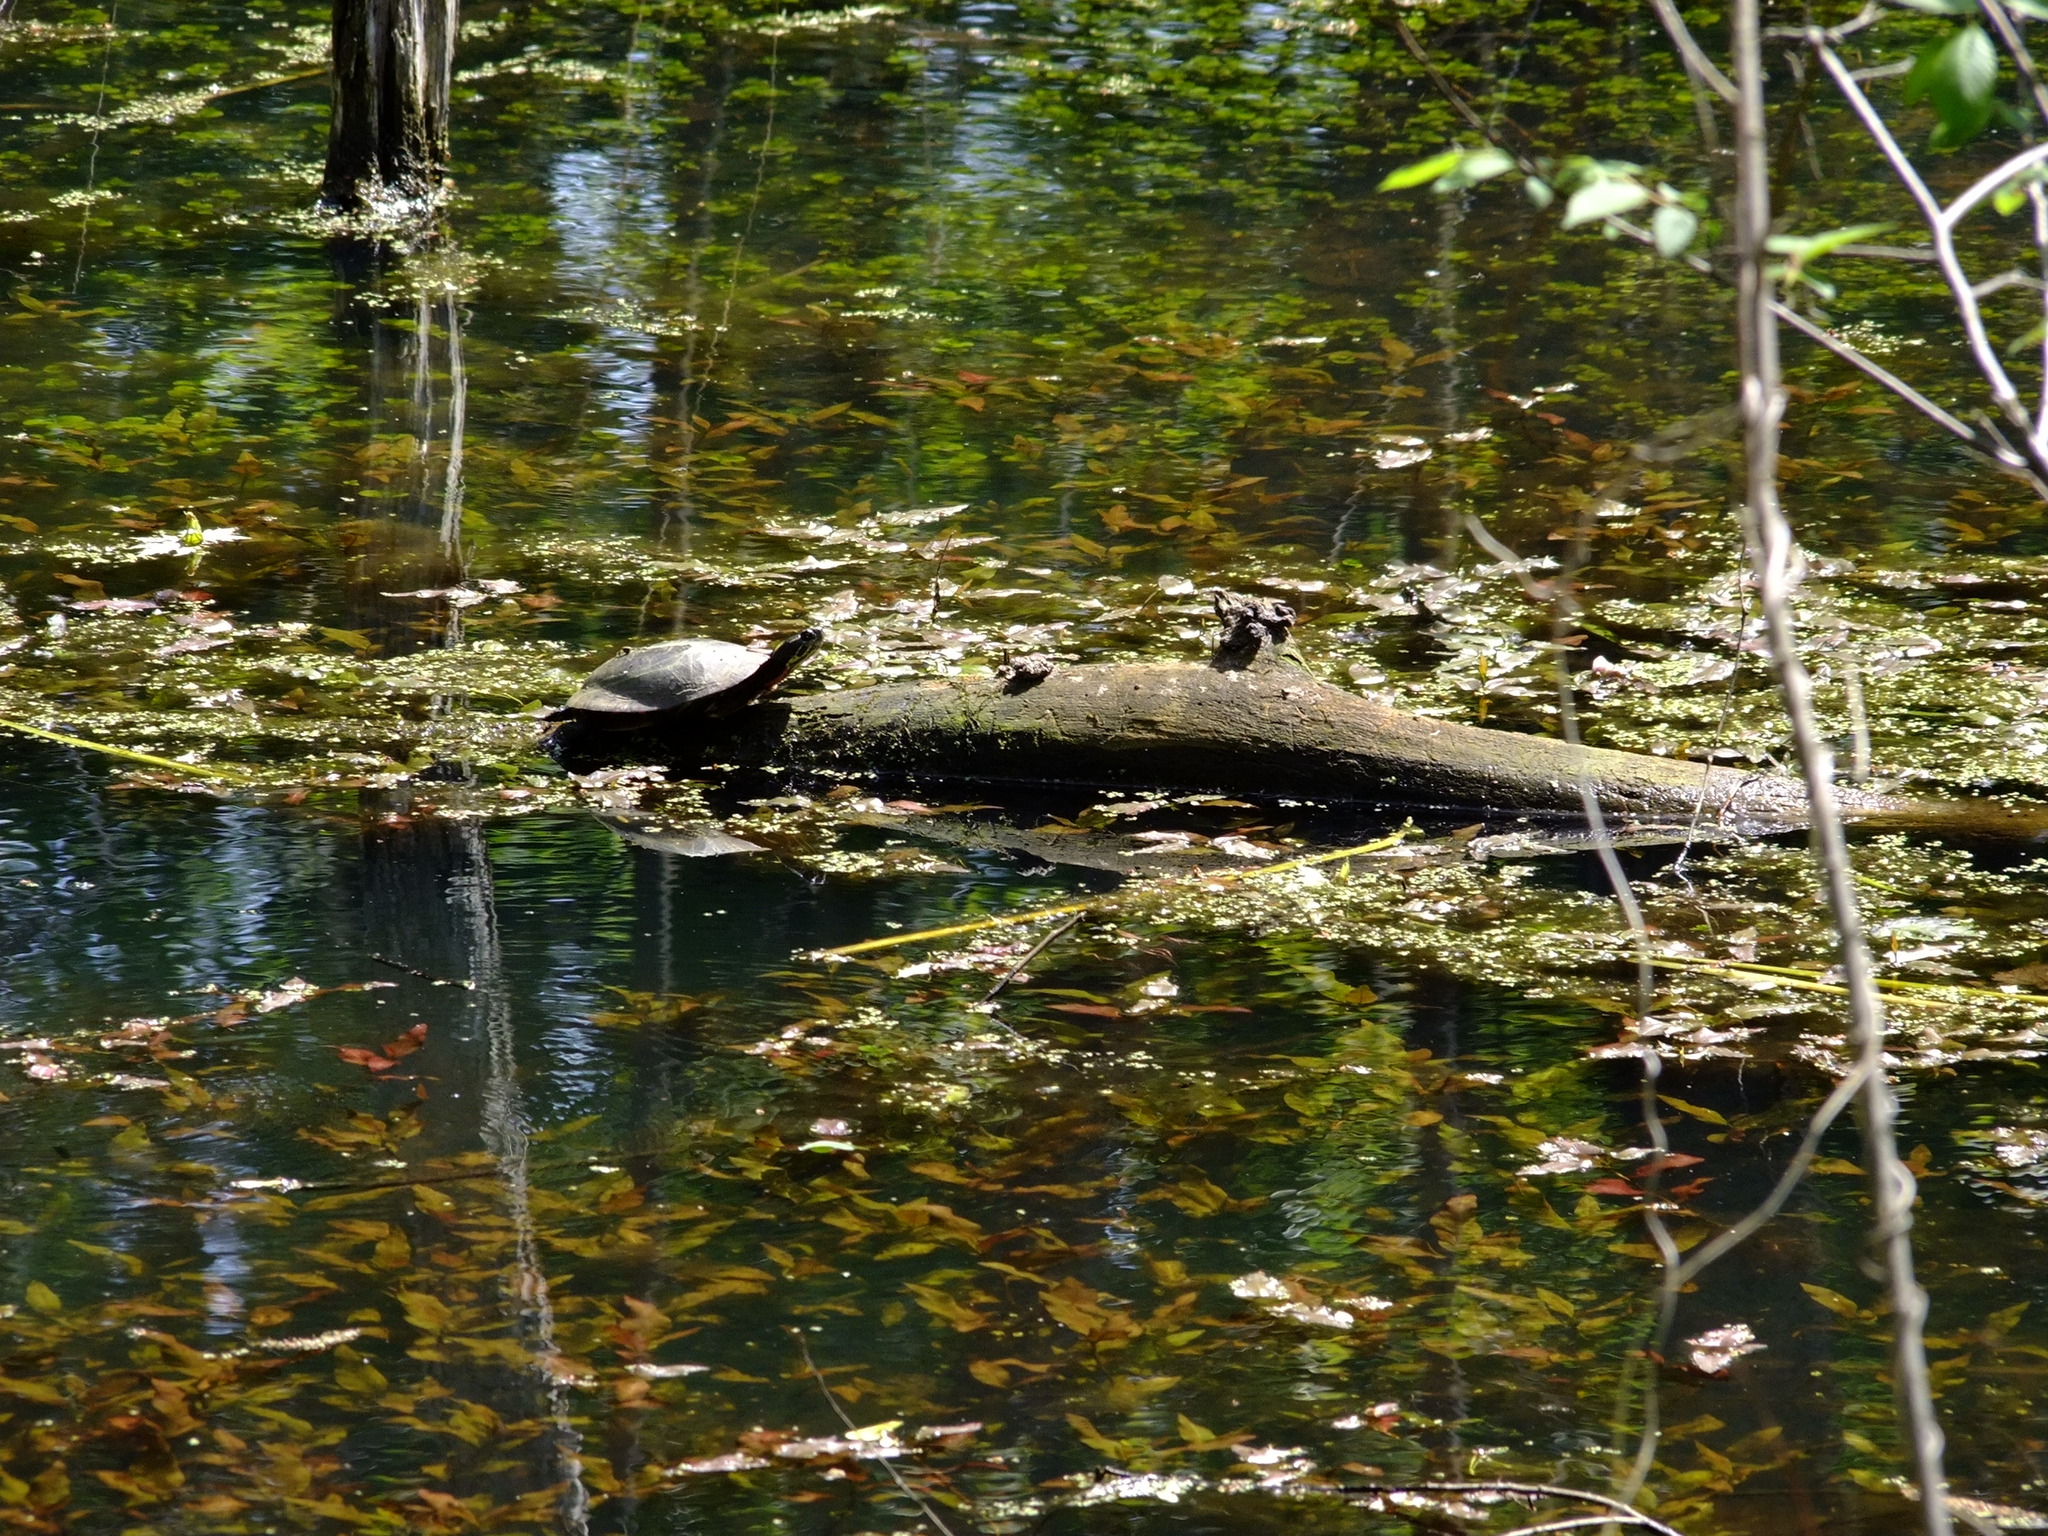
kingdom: Animalia
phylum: Chordata
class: Testudines
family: Emydidae
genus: Chrysemys
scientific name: Chrysemys picta
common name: Painted turtle
